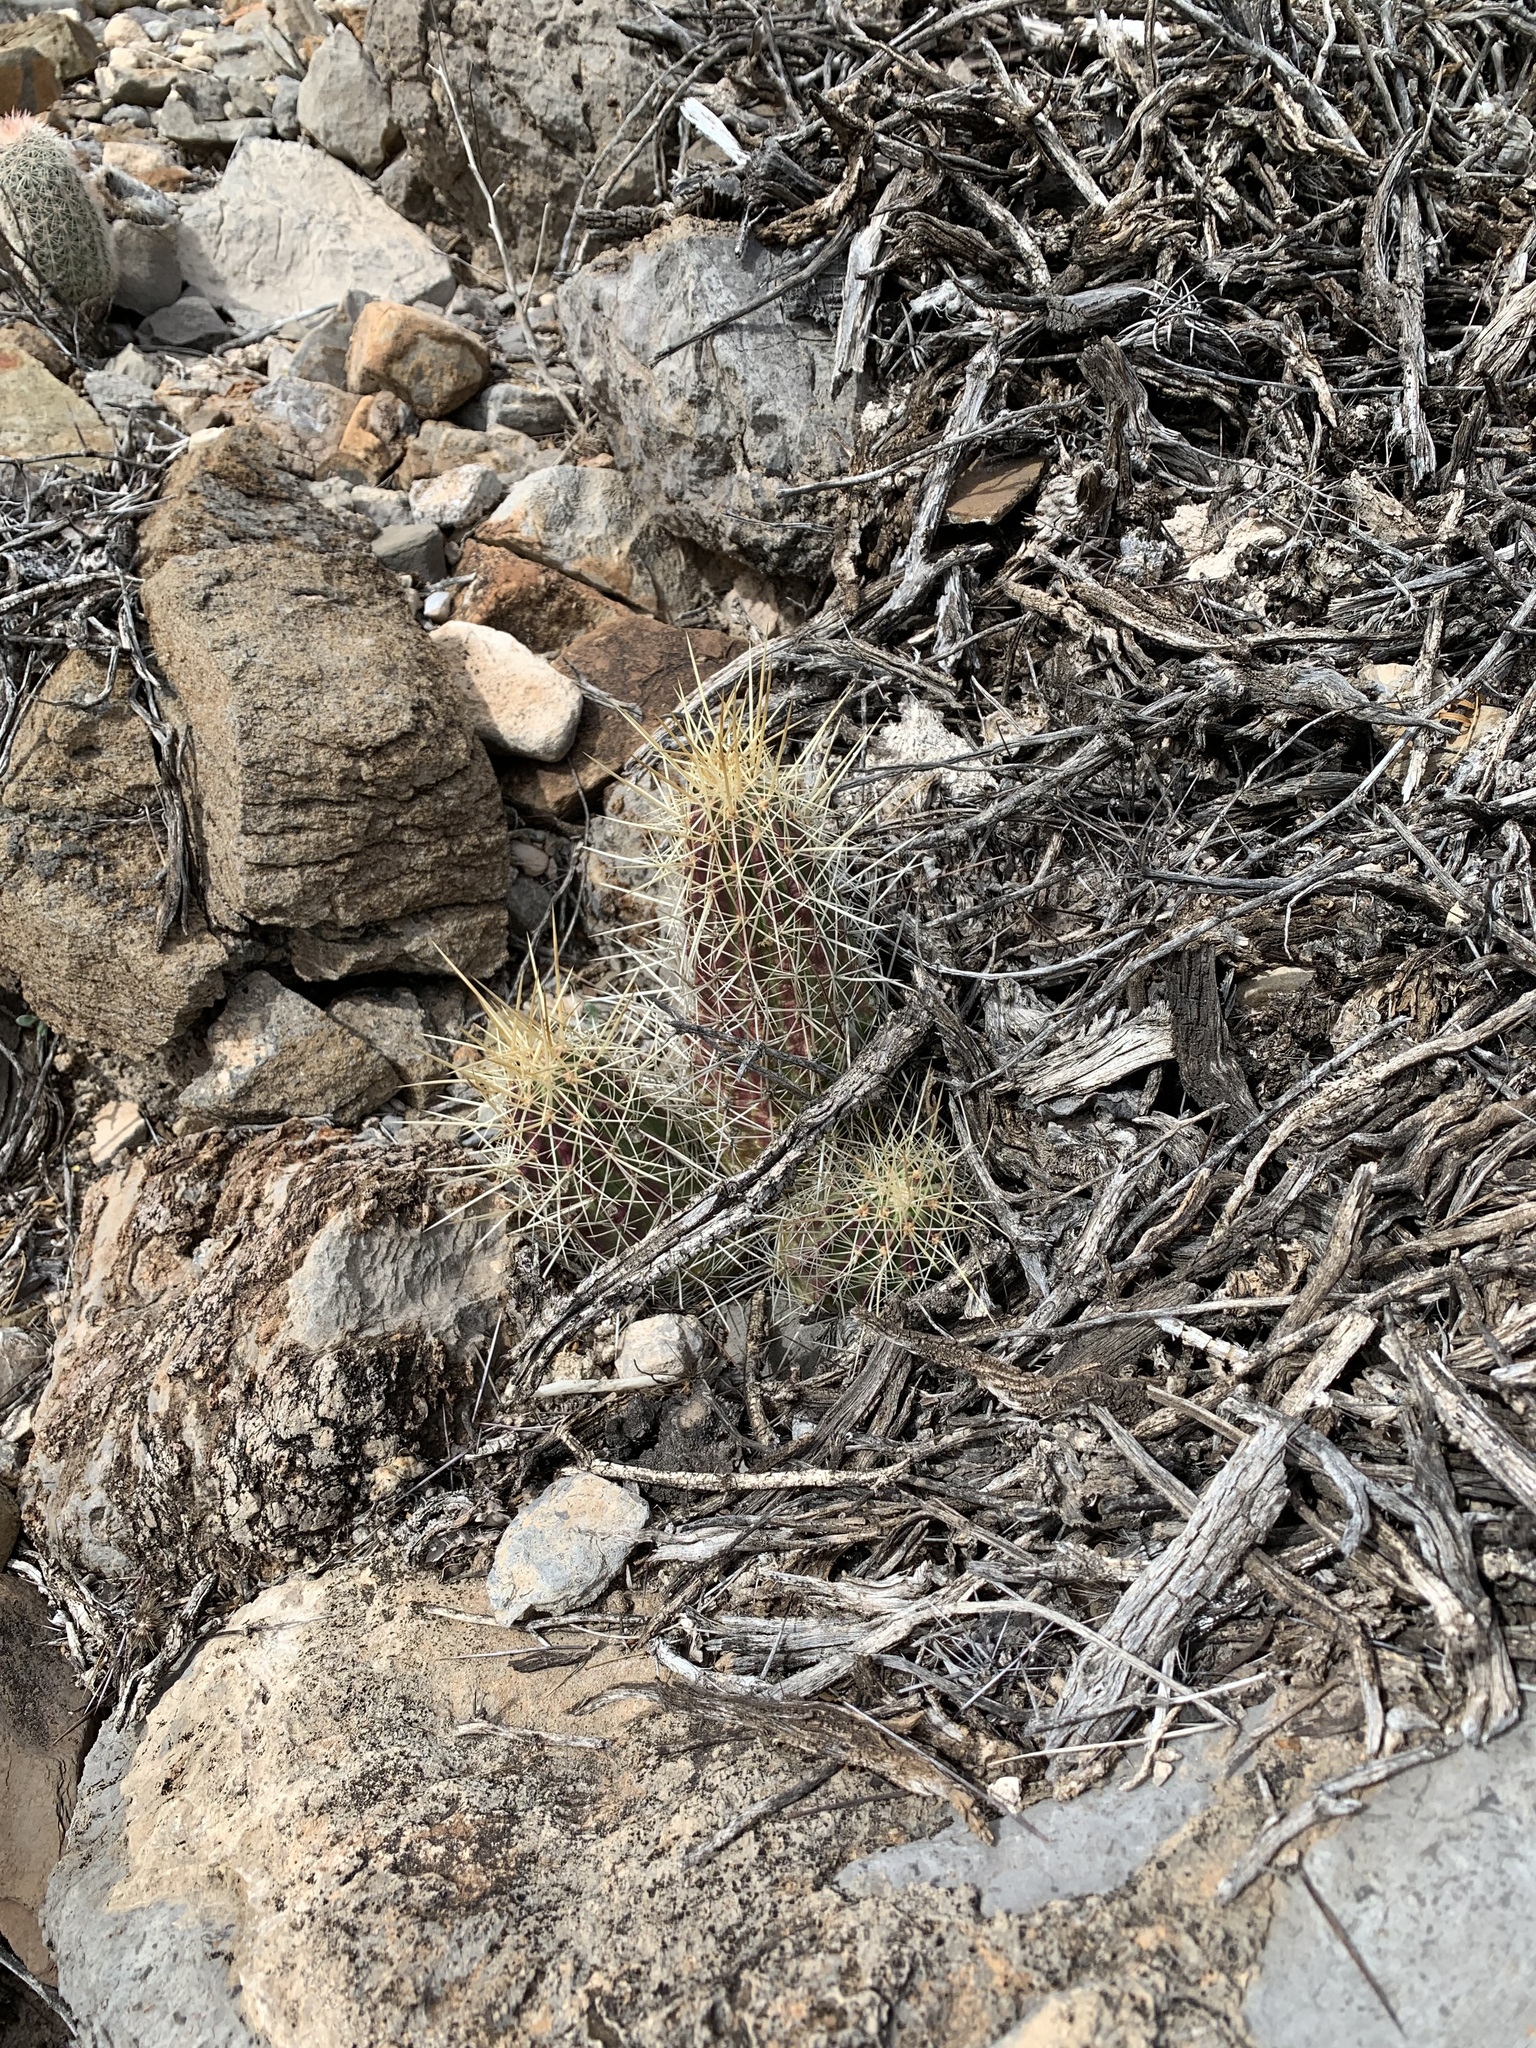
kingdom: Plantae
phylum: Tracheophyta
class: Magnoliopsida
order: Caryophyllales
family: Cactaceae
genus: Echinocereus
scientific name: Echinocereus stramineus
